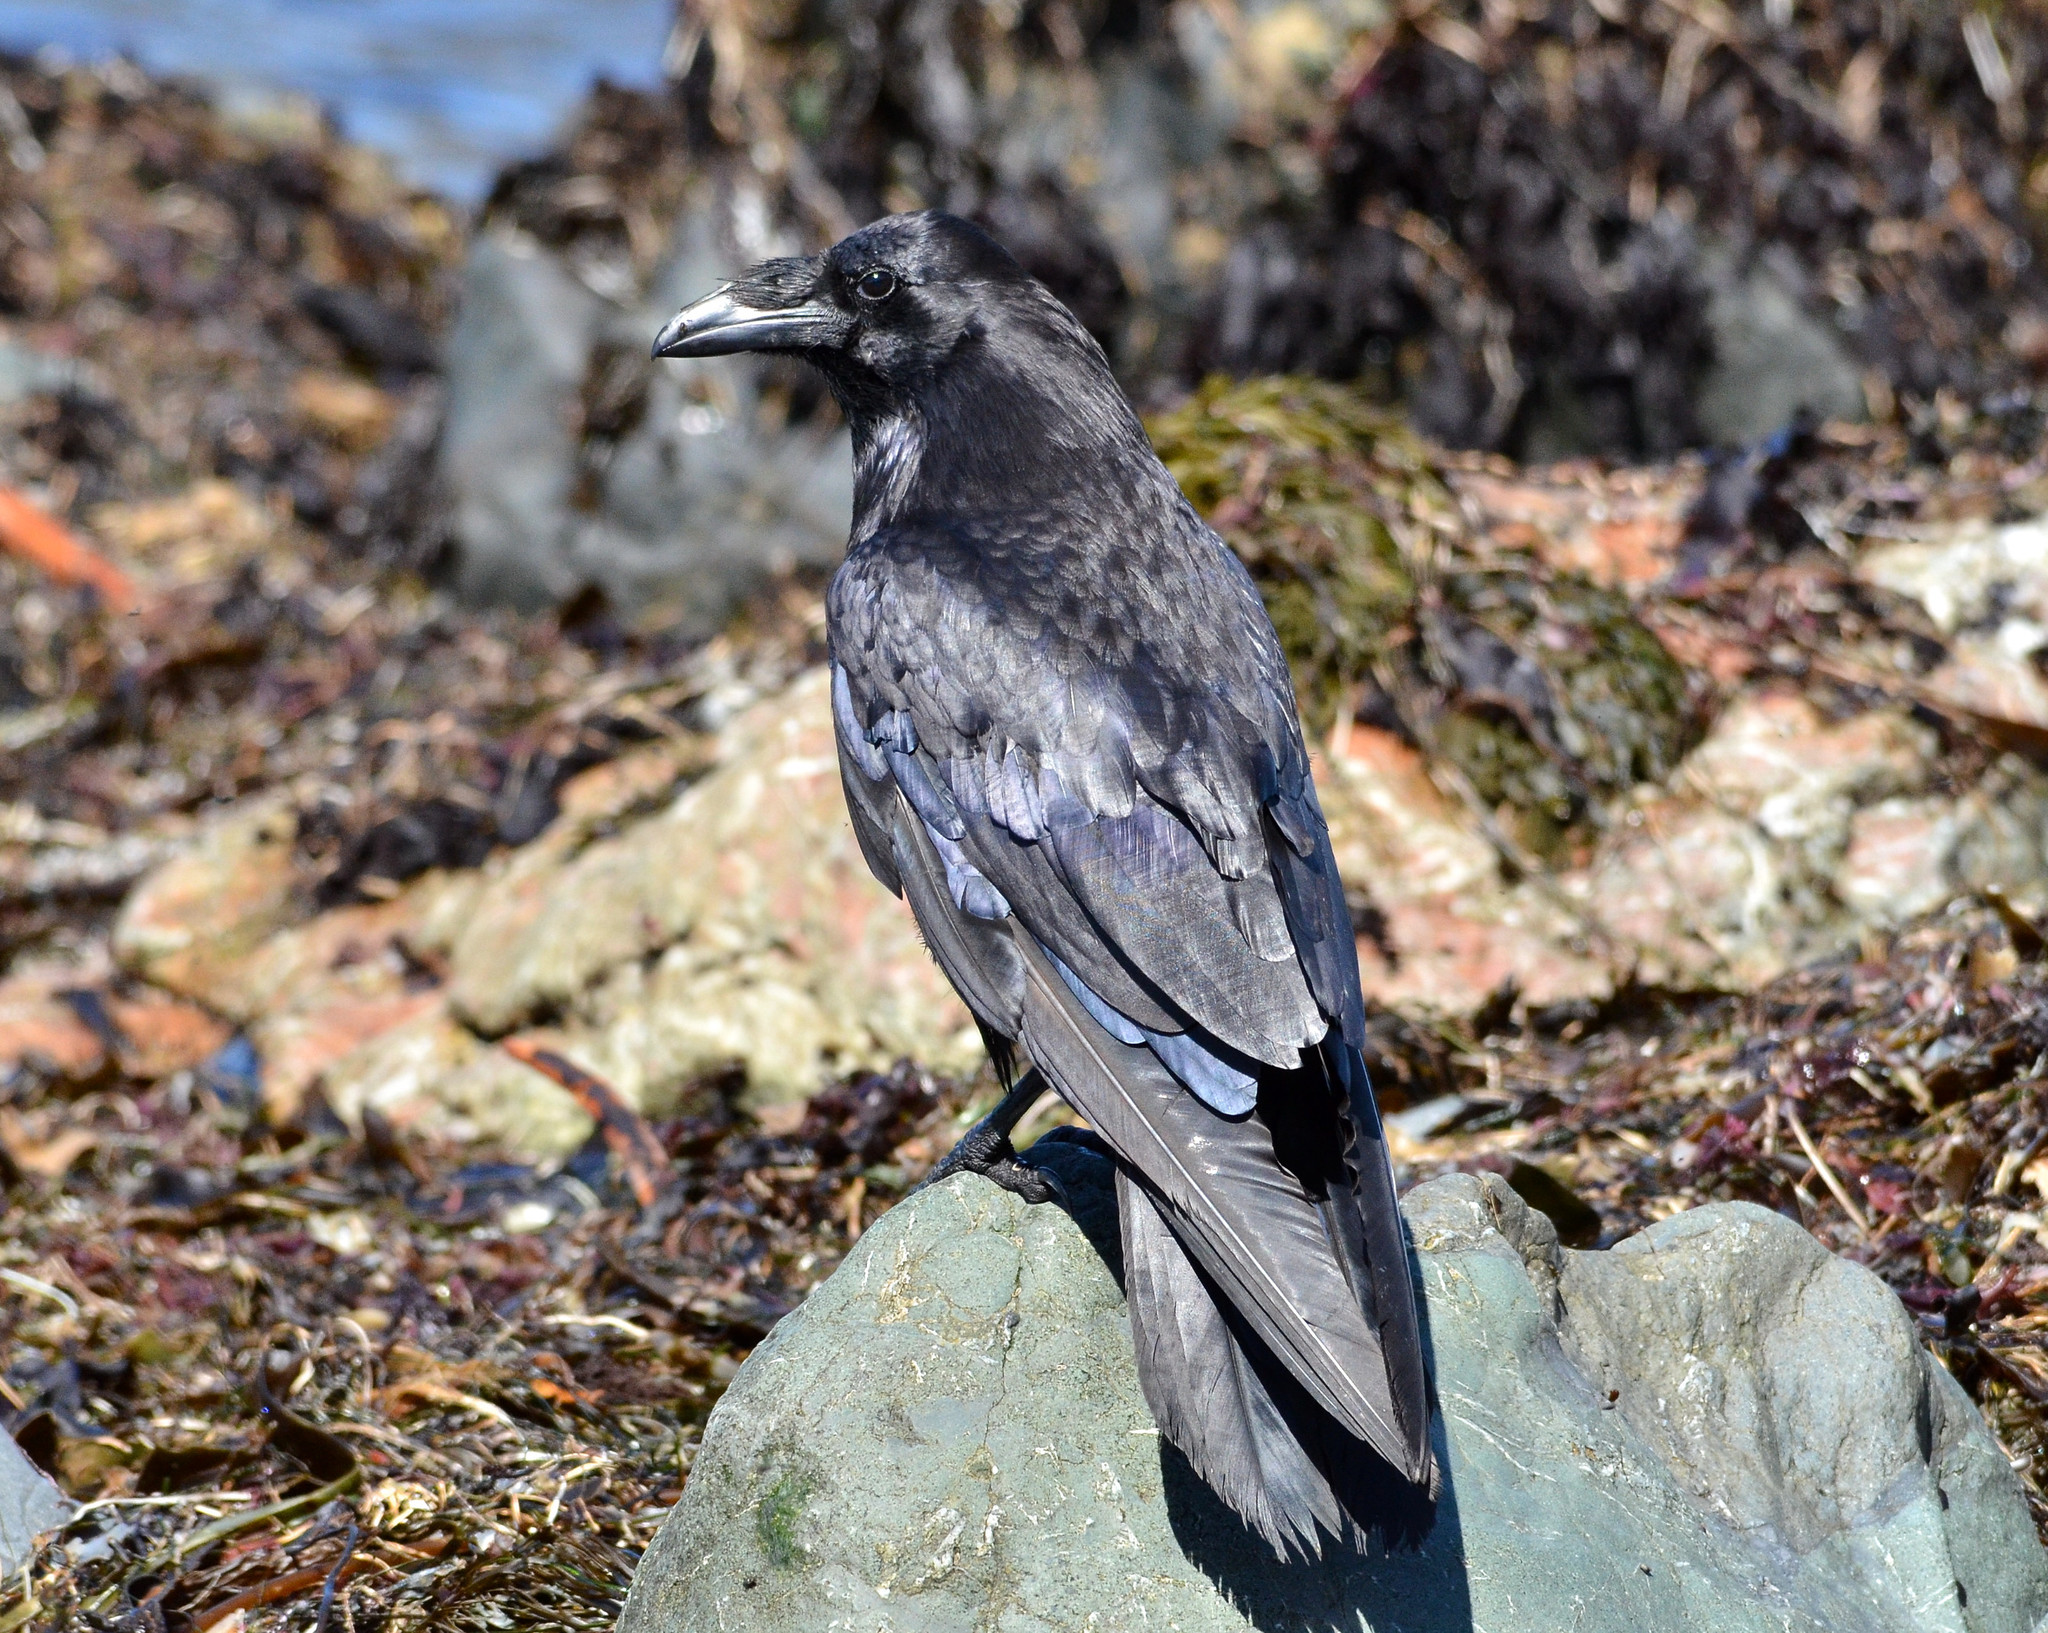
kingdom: Animalia
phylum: Chordata
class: Aves
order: Passeriformes
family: Corvidae
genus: Corvus
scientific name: Corvus corax
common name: Common raven
